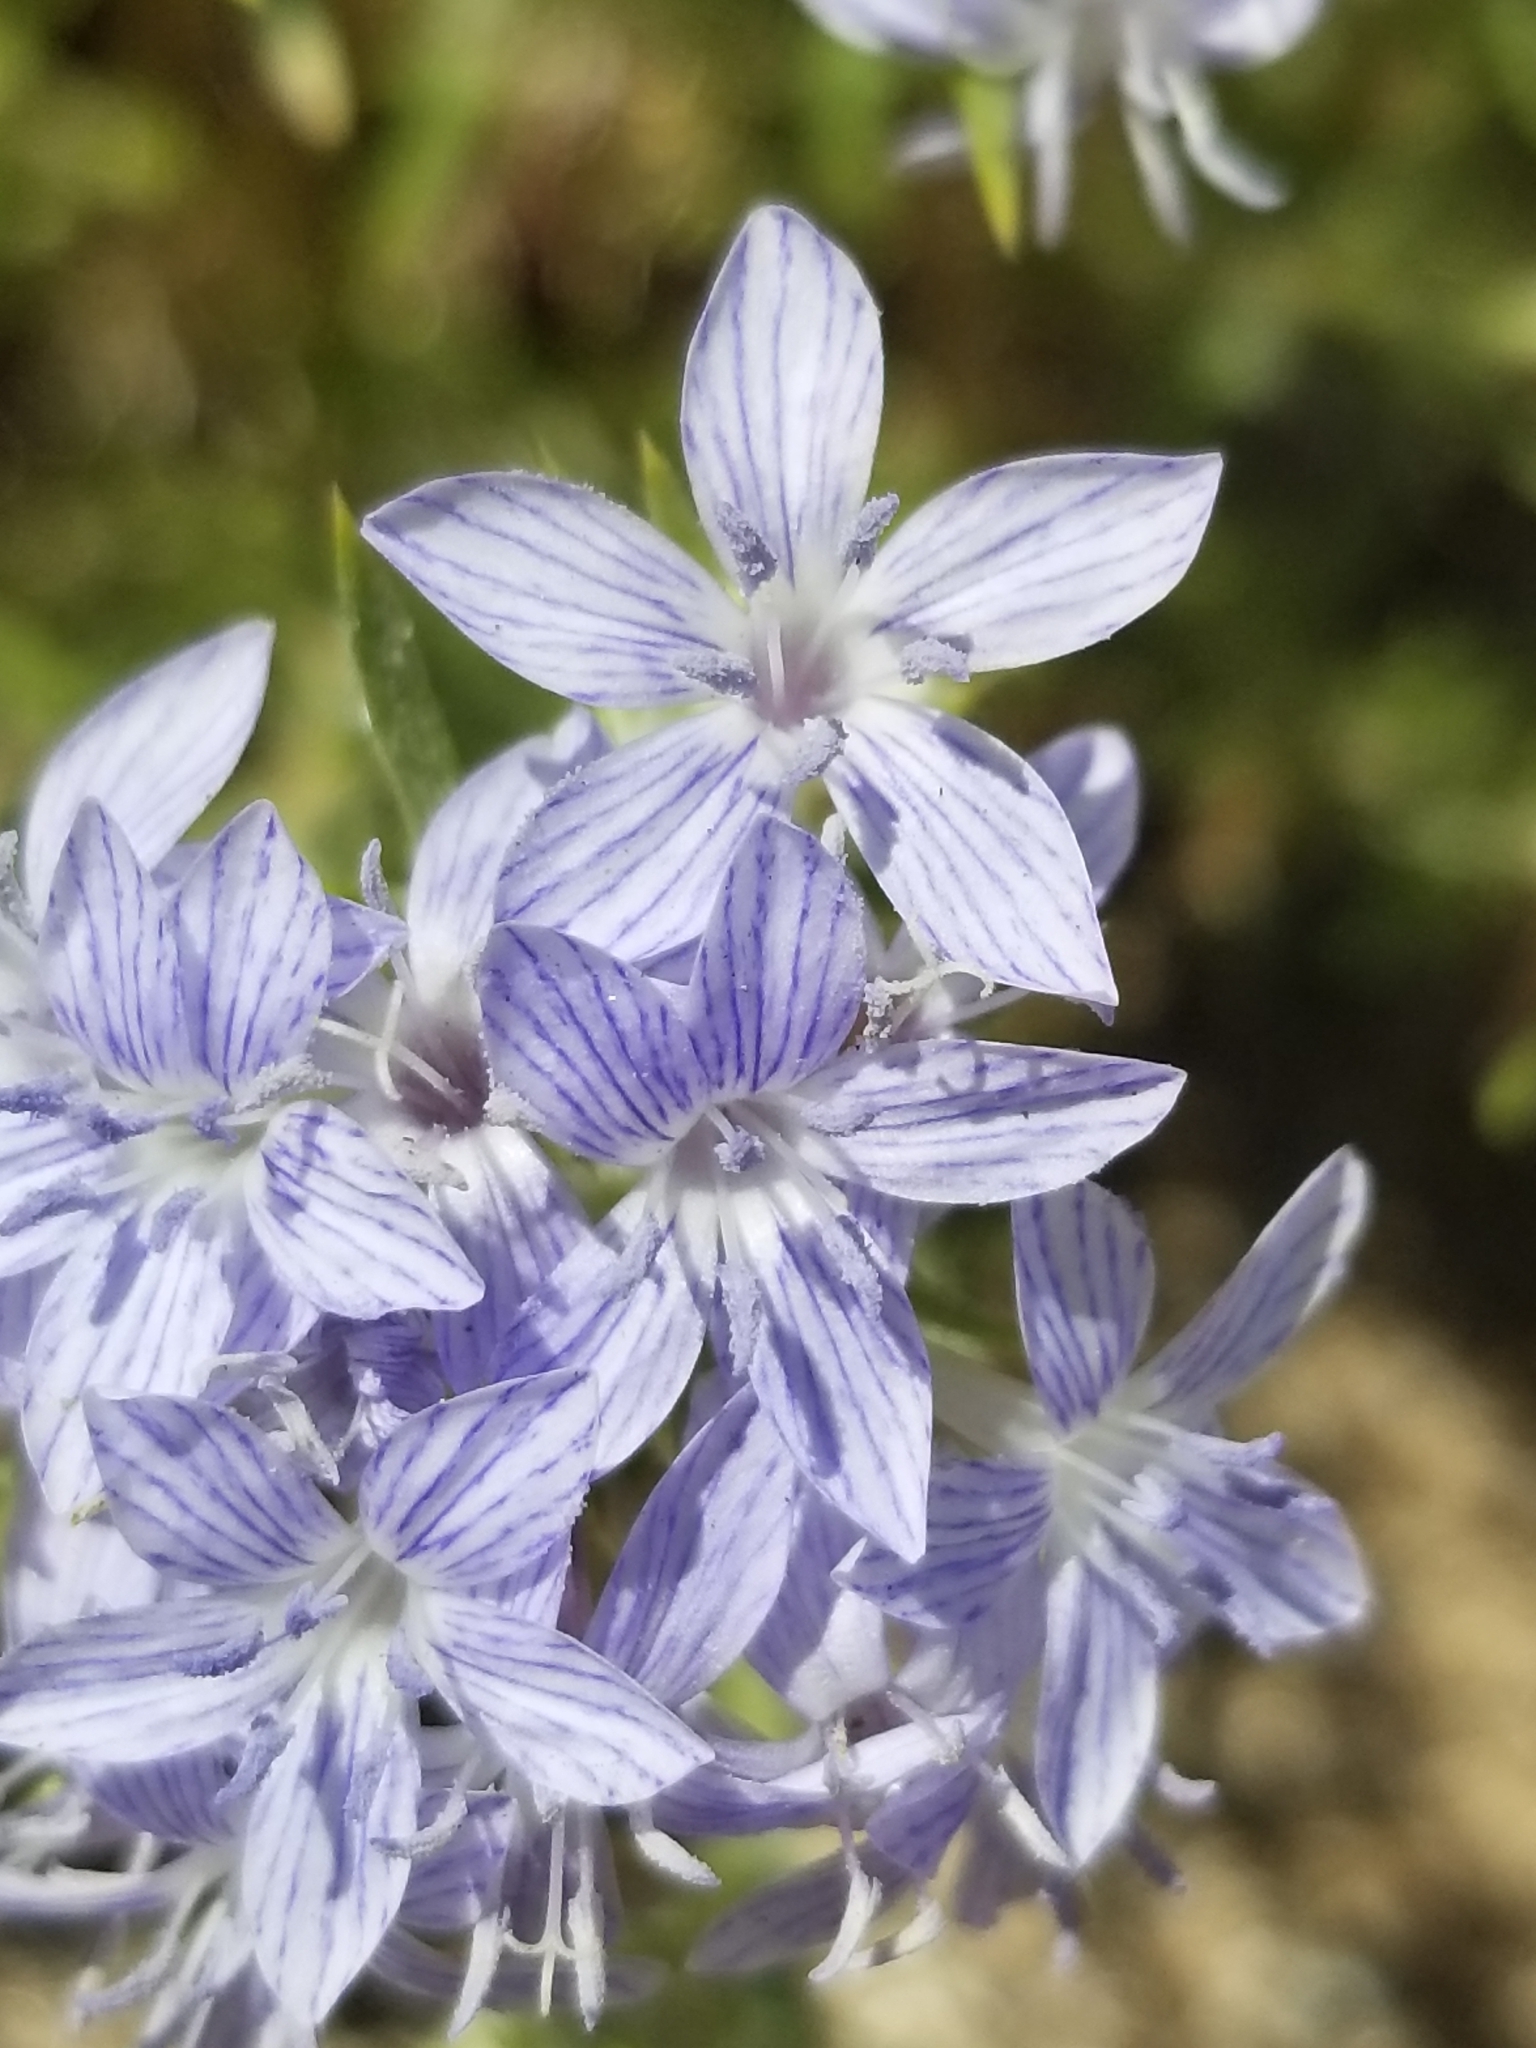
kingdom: Plantae
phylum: Tracheophyta
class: Magnoliopsida
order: Ericales
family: Polemoniaceae
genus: Eriastrum
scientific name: Eriastrum densifolium
